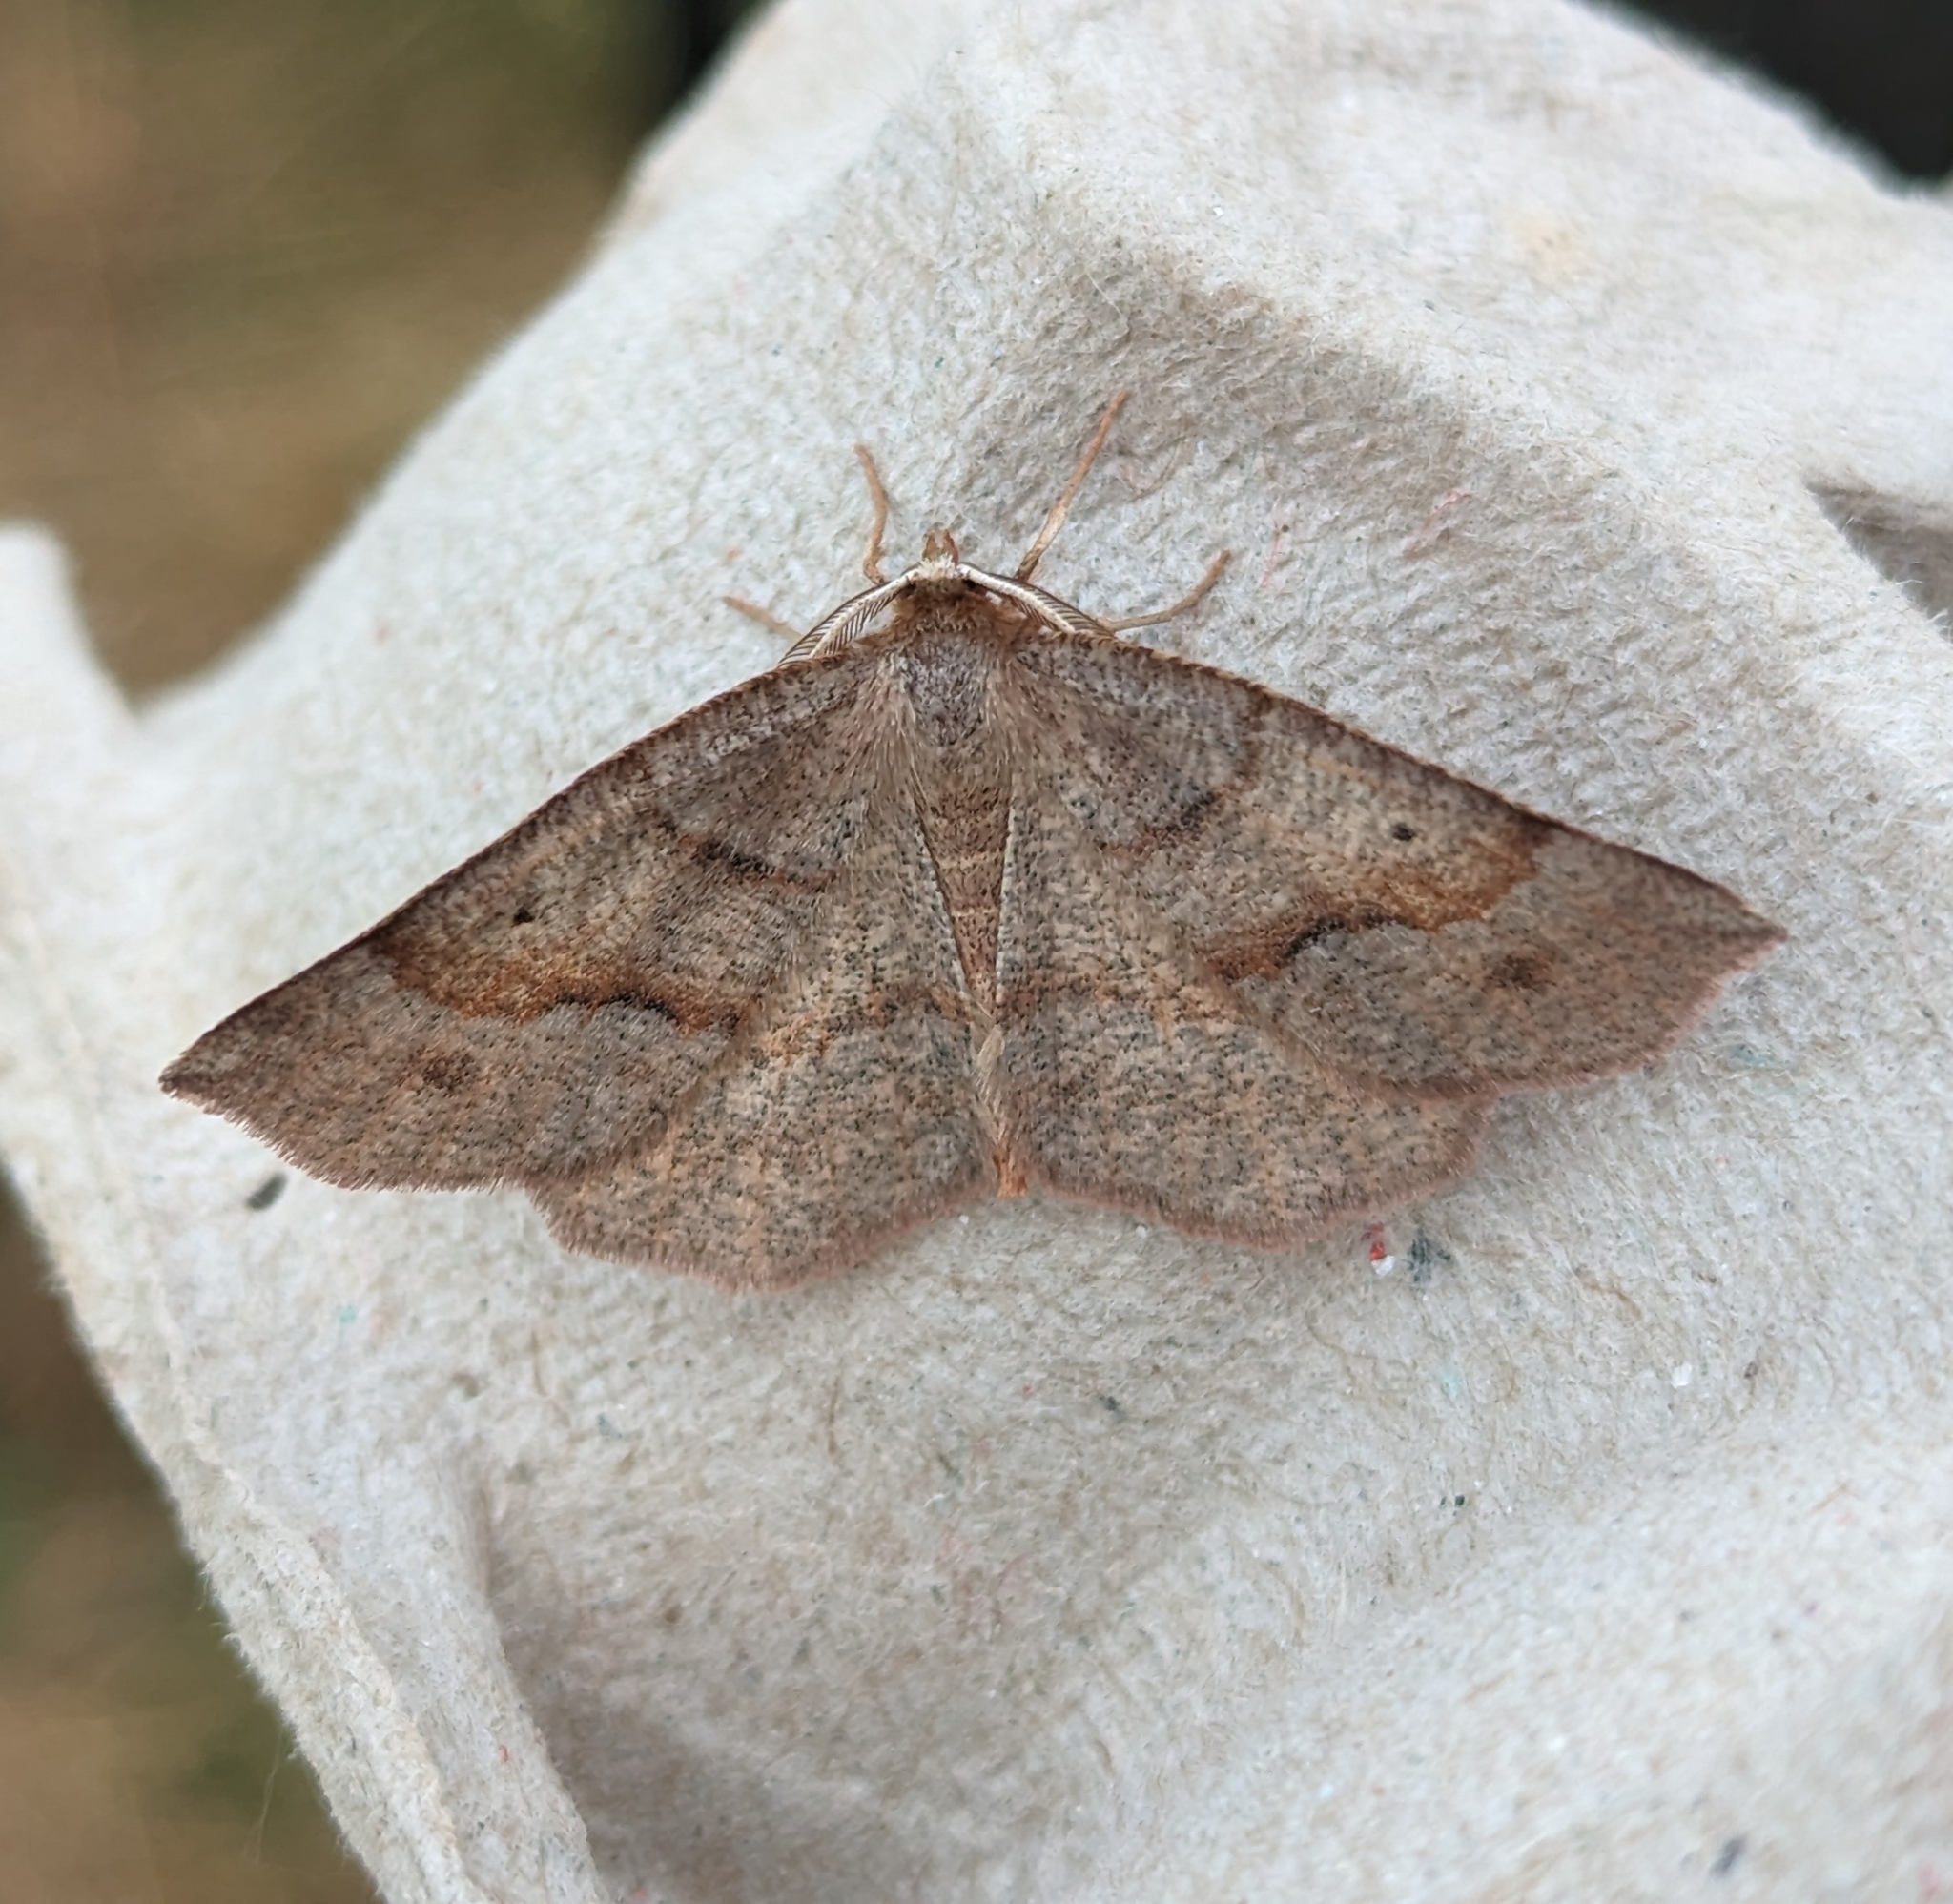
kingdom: Animalia
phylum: Arthropoda
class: Insecta
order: Lepidoptera
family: Geometridae
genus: Metarranthis
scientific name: Metarranthis duaria
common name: Ruddy metarranthis moth
